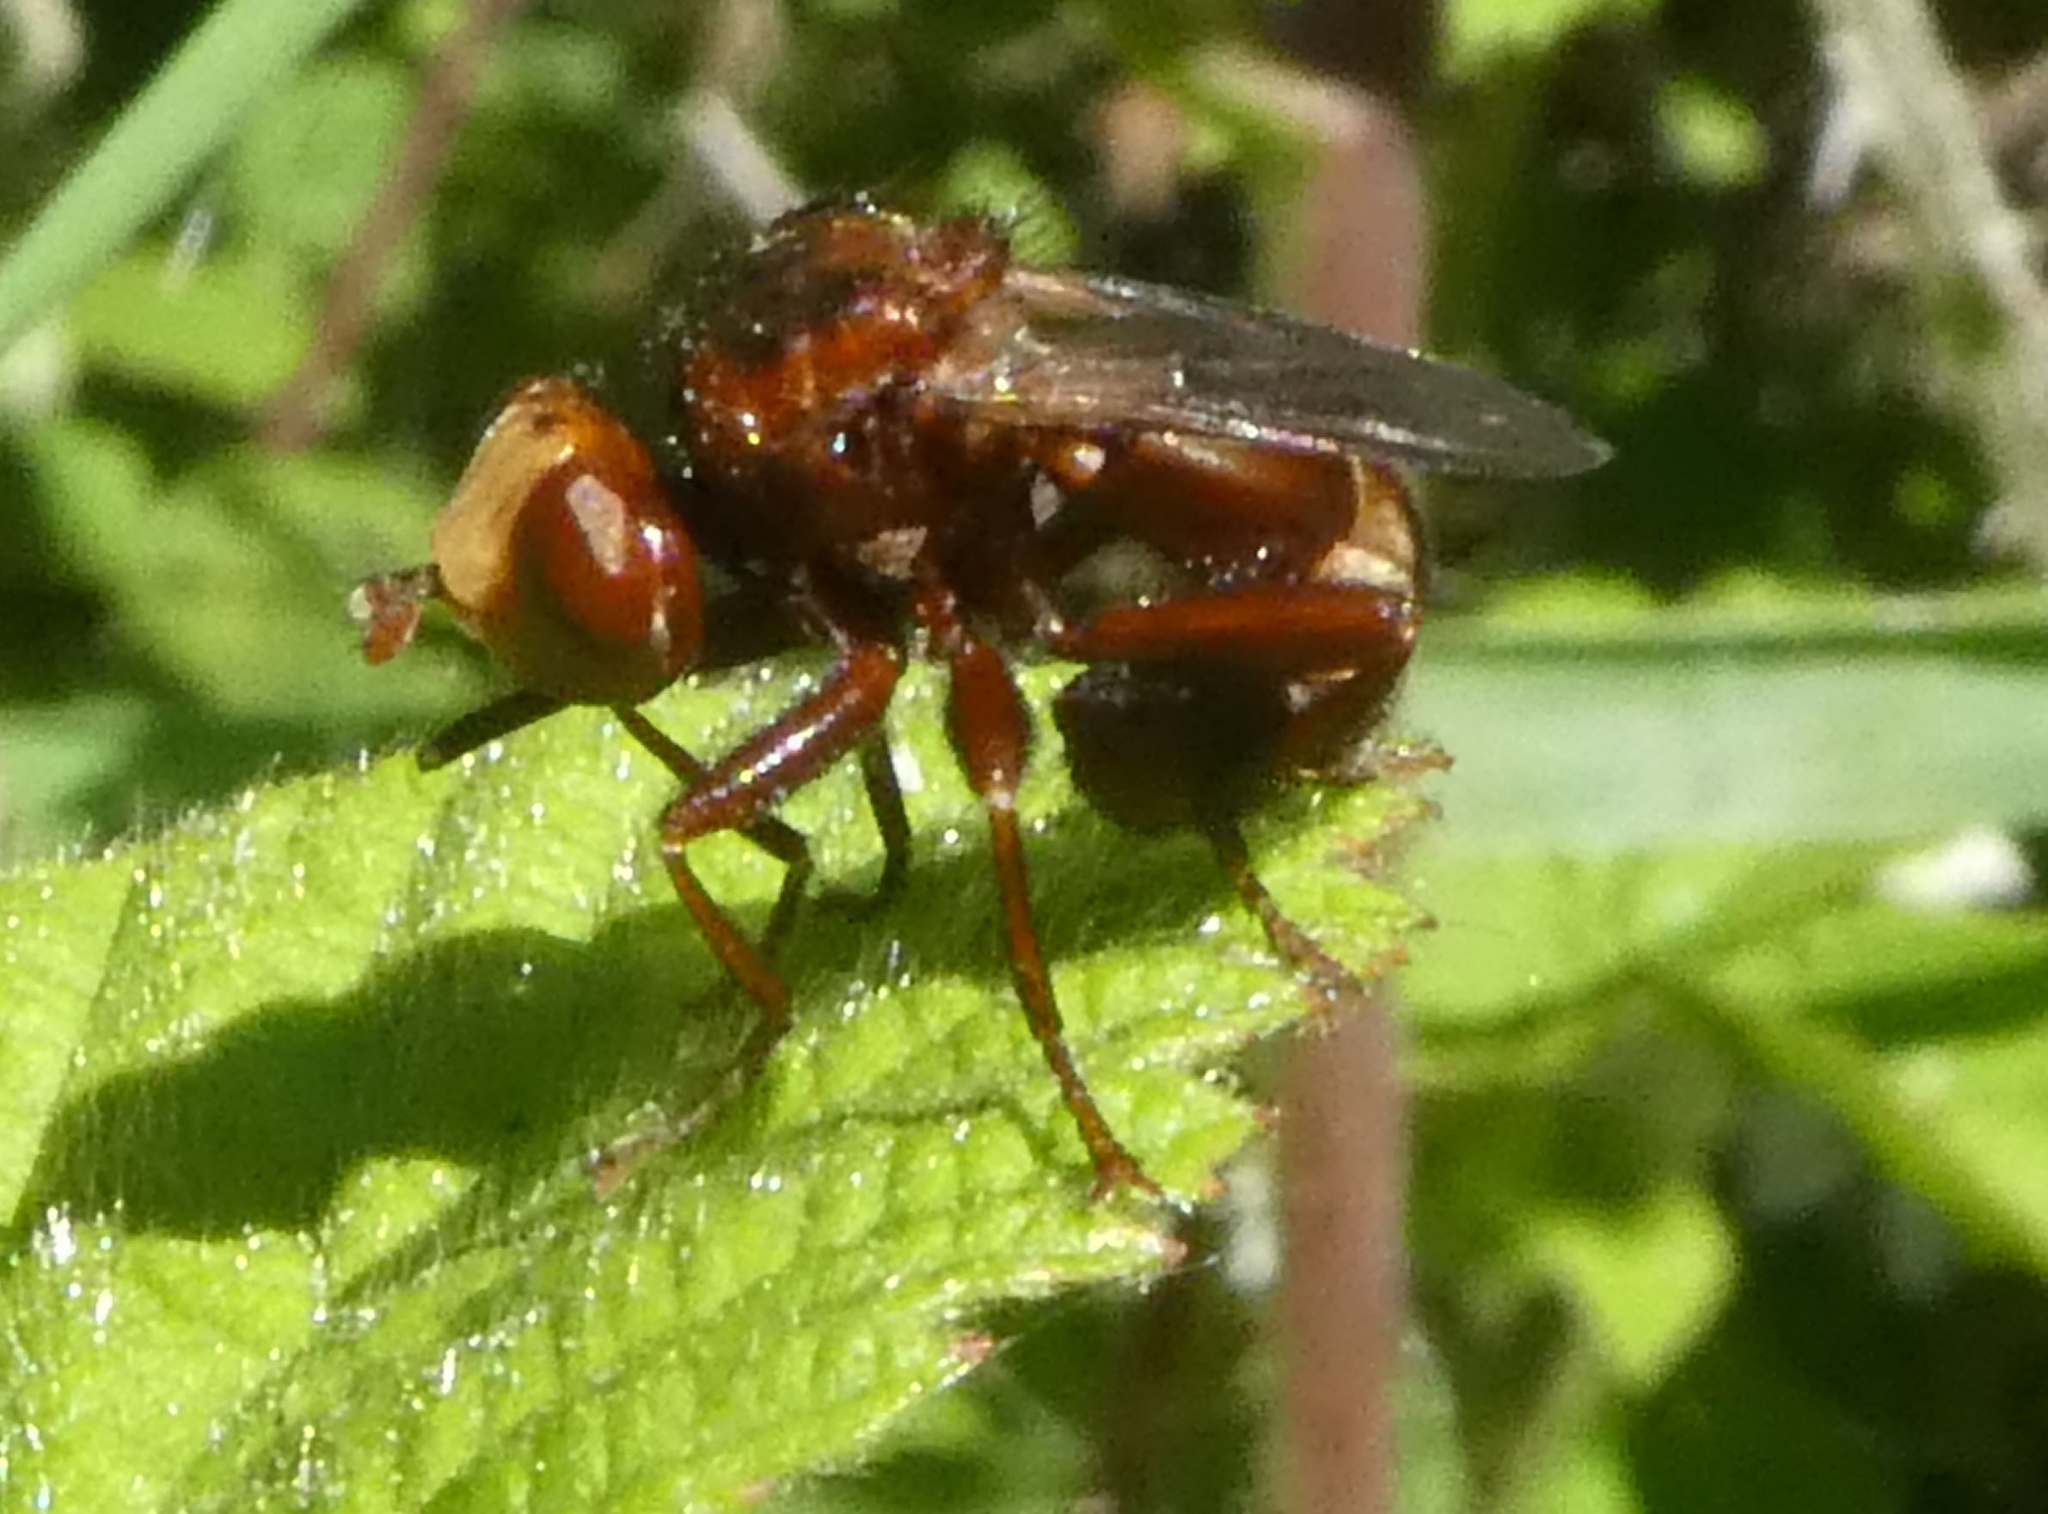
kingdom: Animalia
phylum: Arthropoda
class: Insecta
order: Diptera
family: Conopidae
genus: Sicus
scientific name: Sicus ferrugineus
